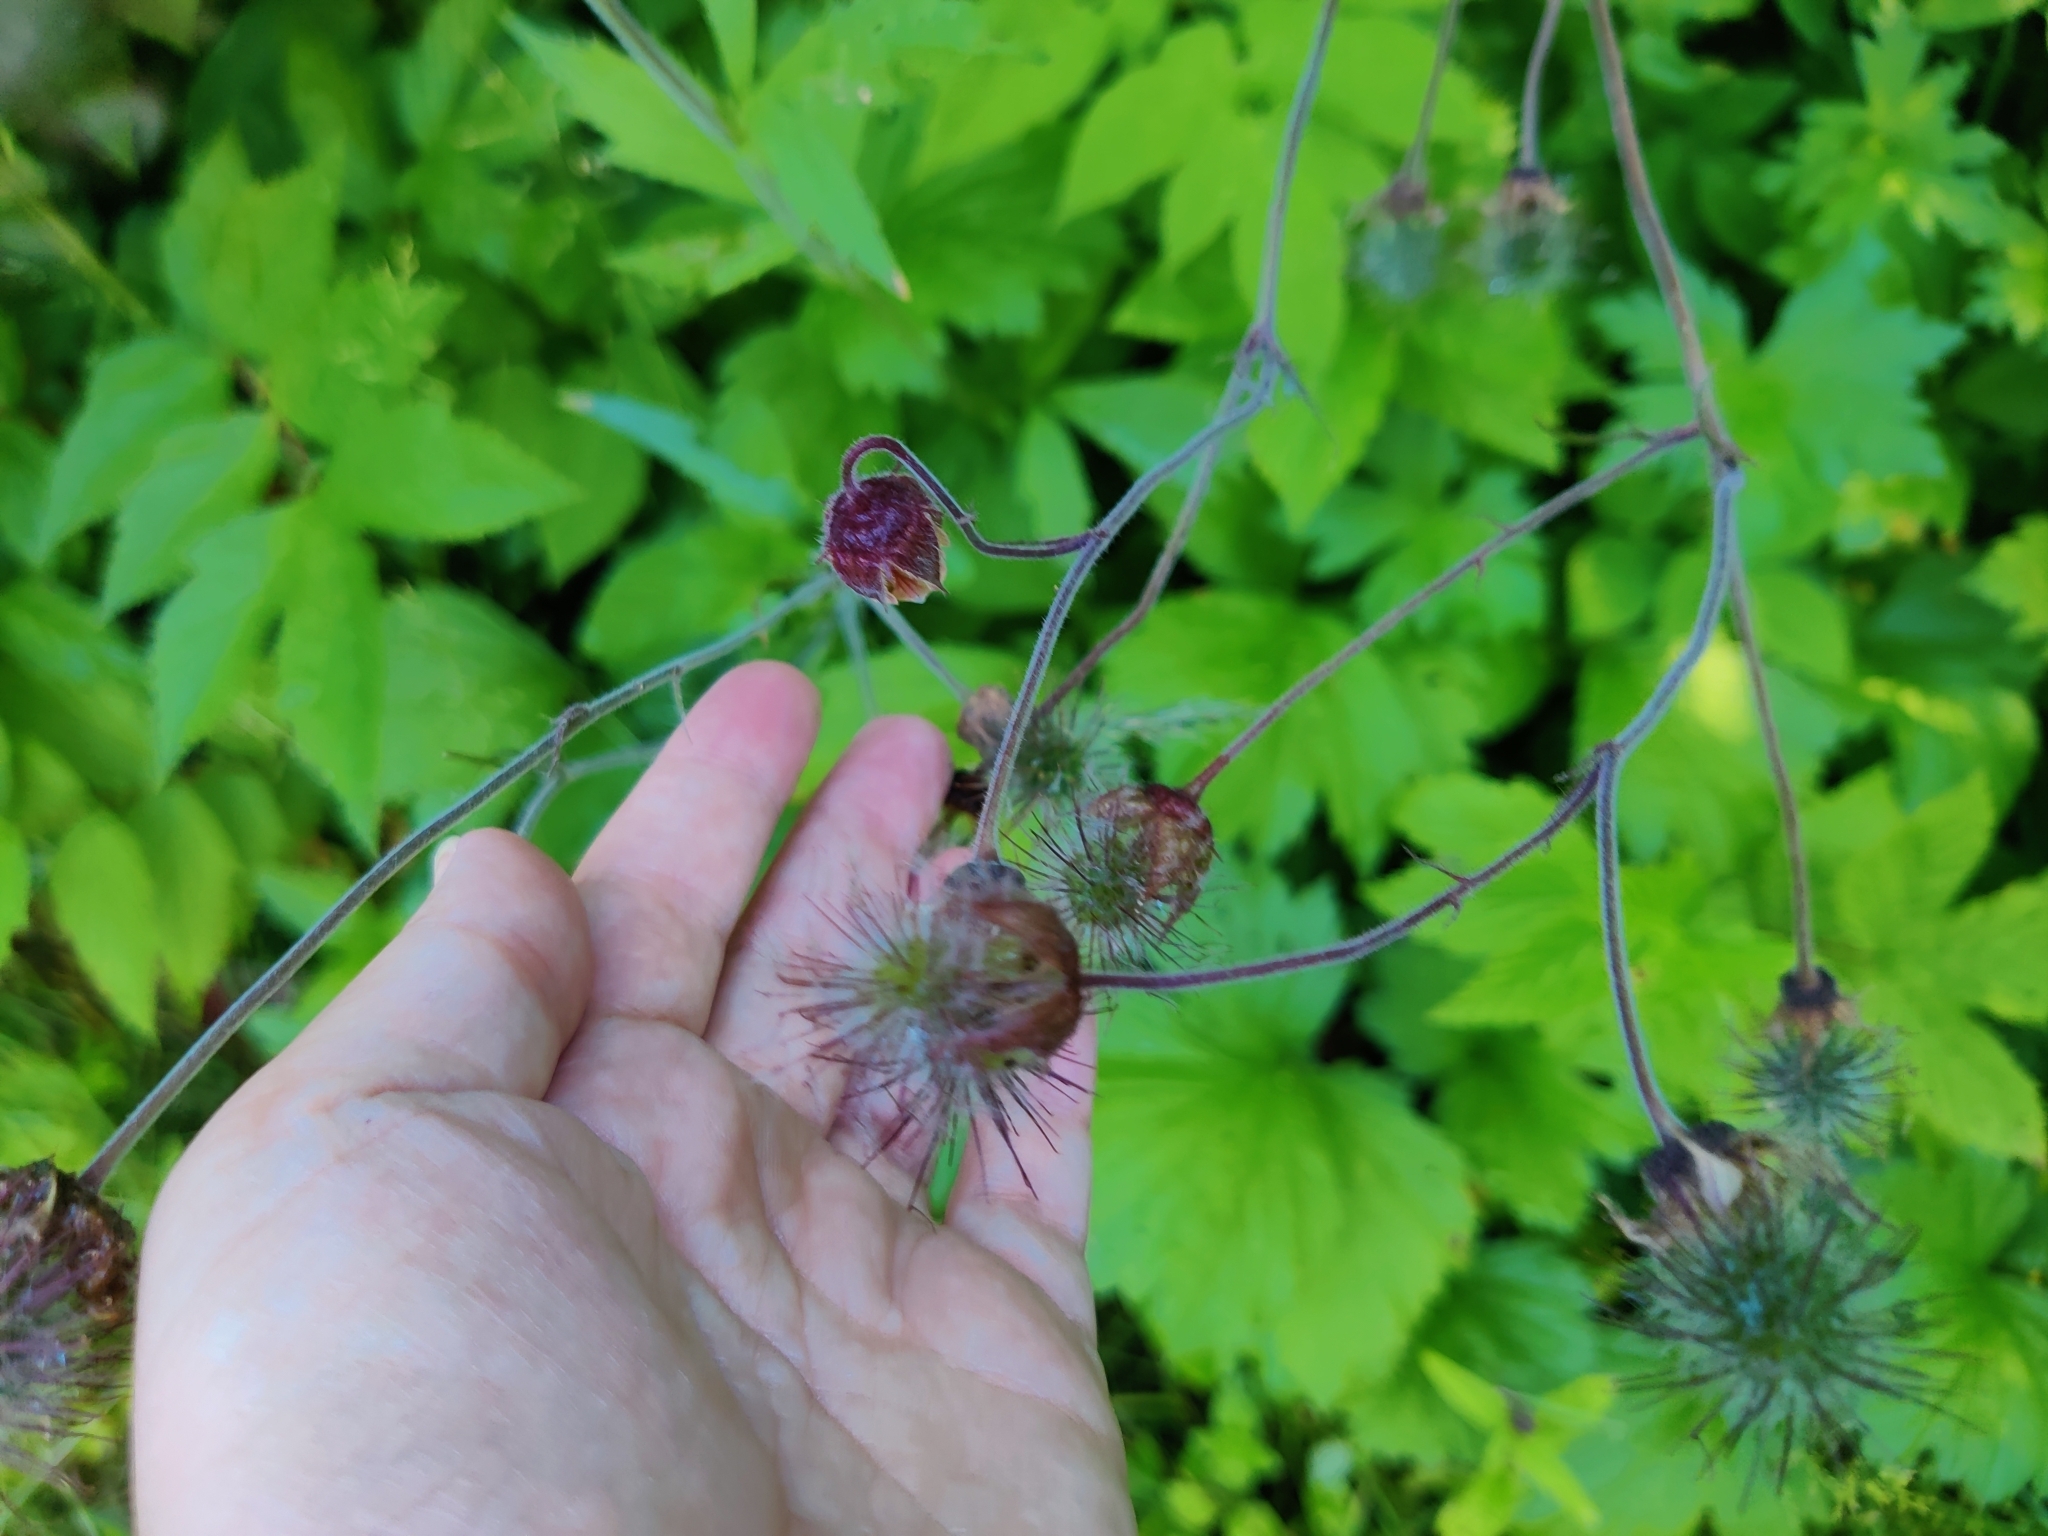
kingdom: Plantae
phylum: Tracheophyta
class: Magnoliopsida
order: Rosales
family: Rosaceae
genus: Geum
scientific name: Geum rivale
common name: Water avens
